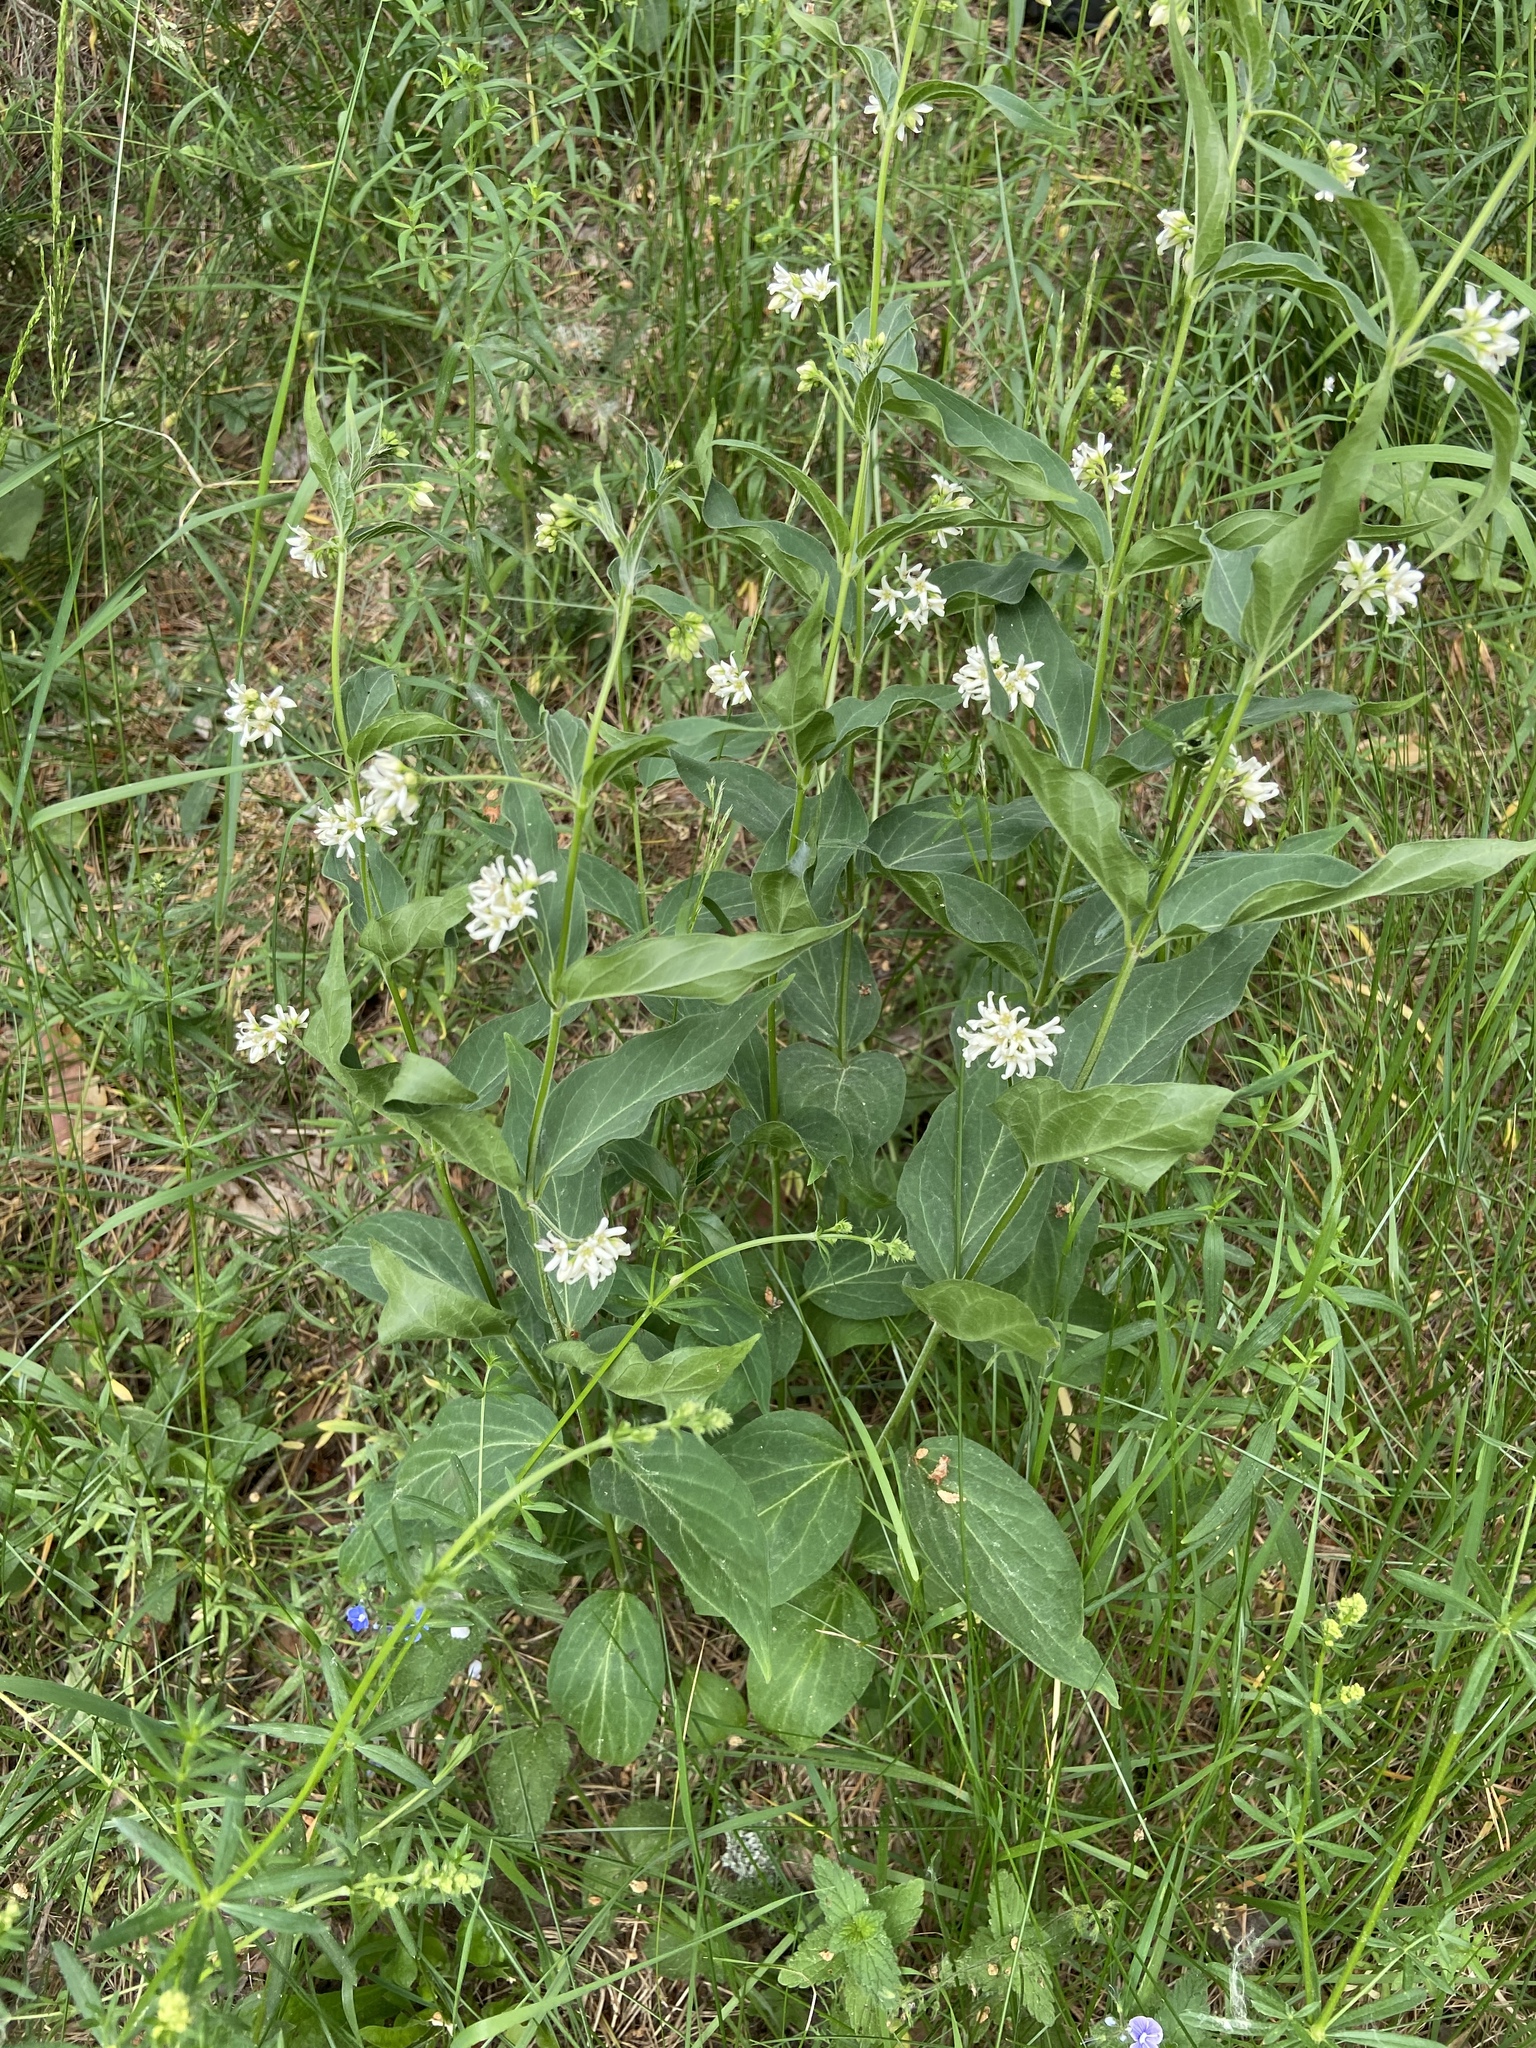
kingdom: Plantae
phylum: Tracheophyta
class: Magnoliopsida
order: Gentianales
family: Apocynaceae
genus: Vincetoxicum
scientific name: Vincetoxicum hirundinaria
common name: White swallowwort
